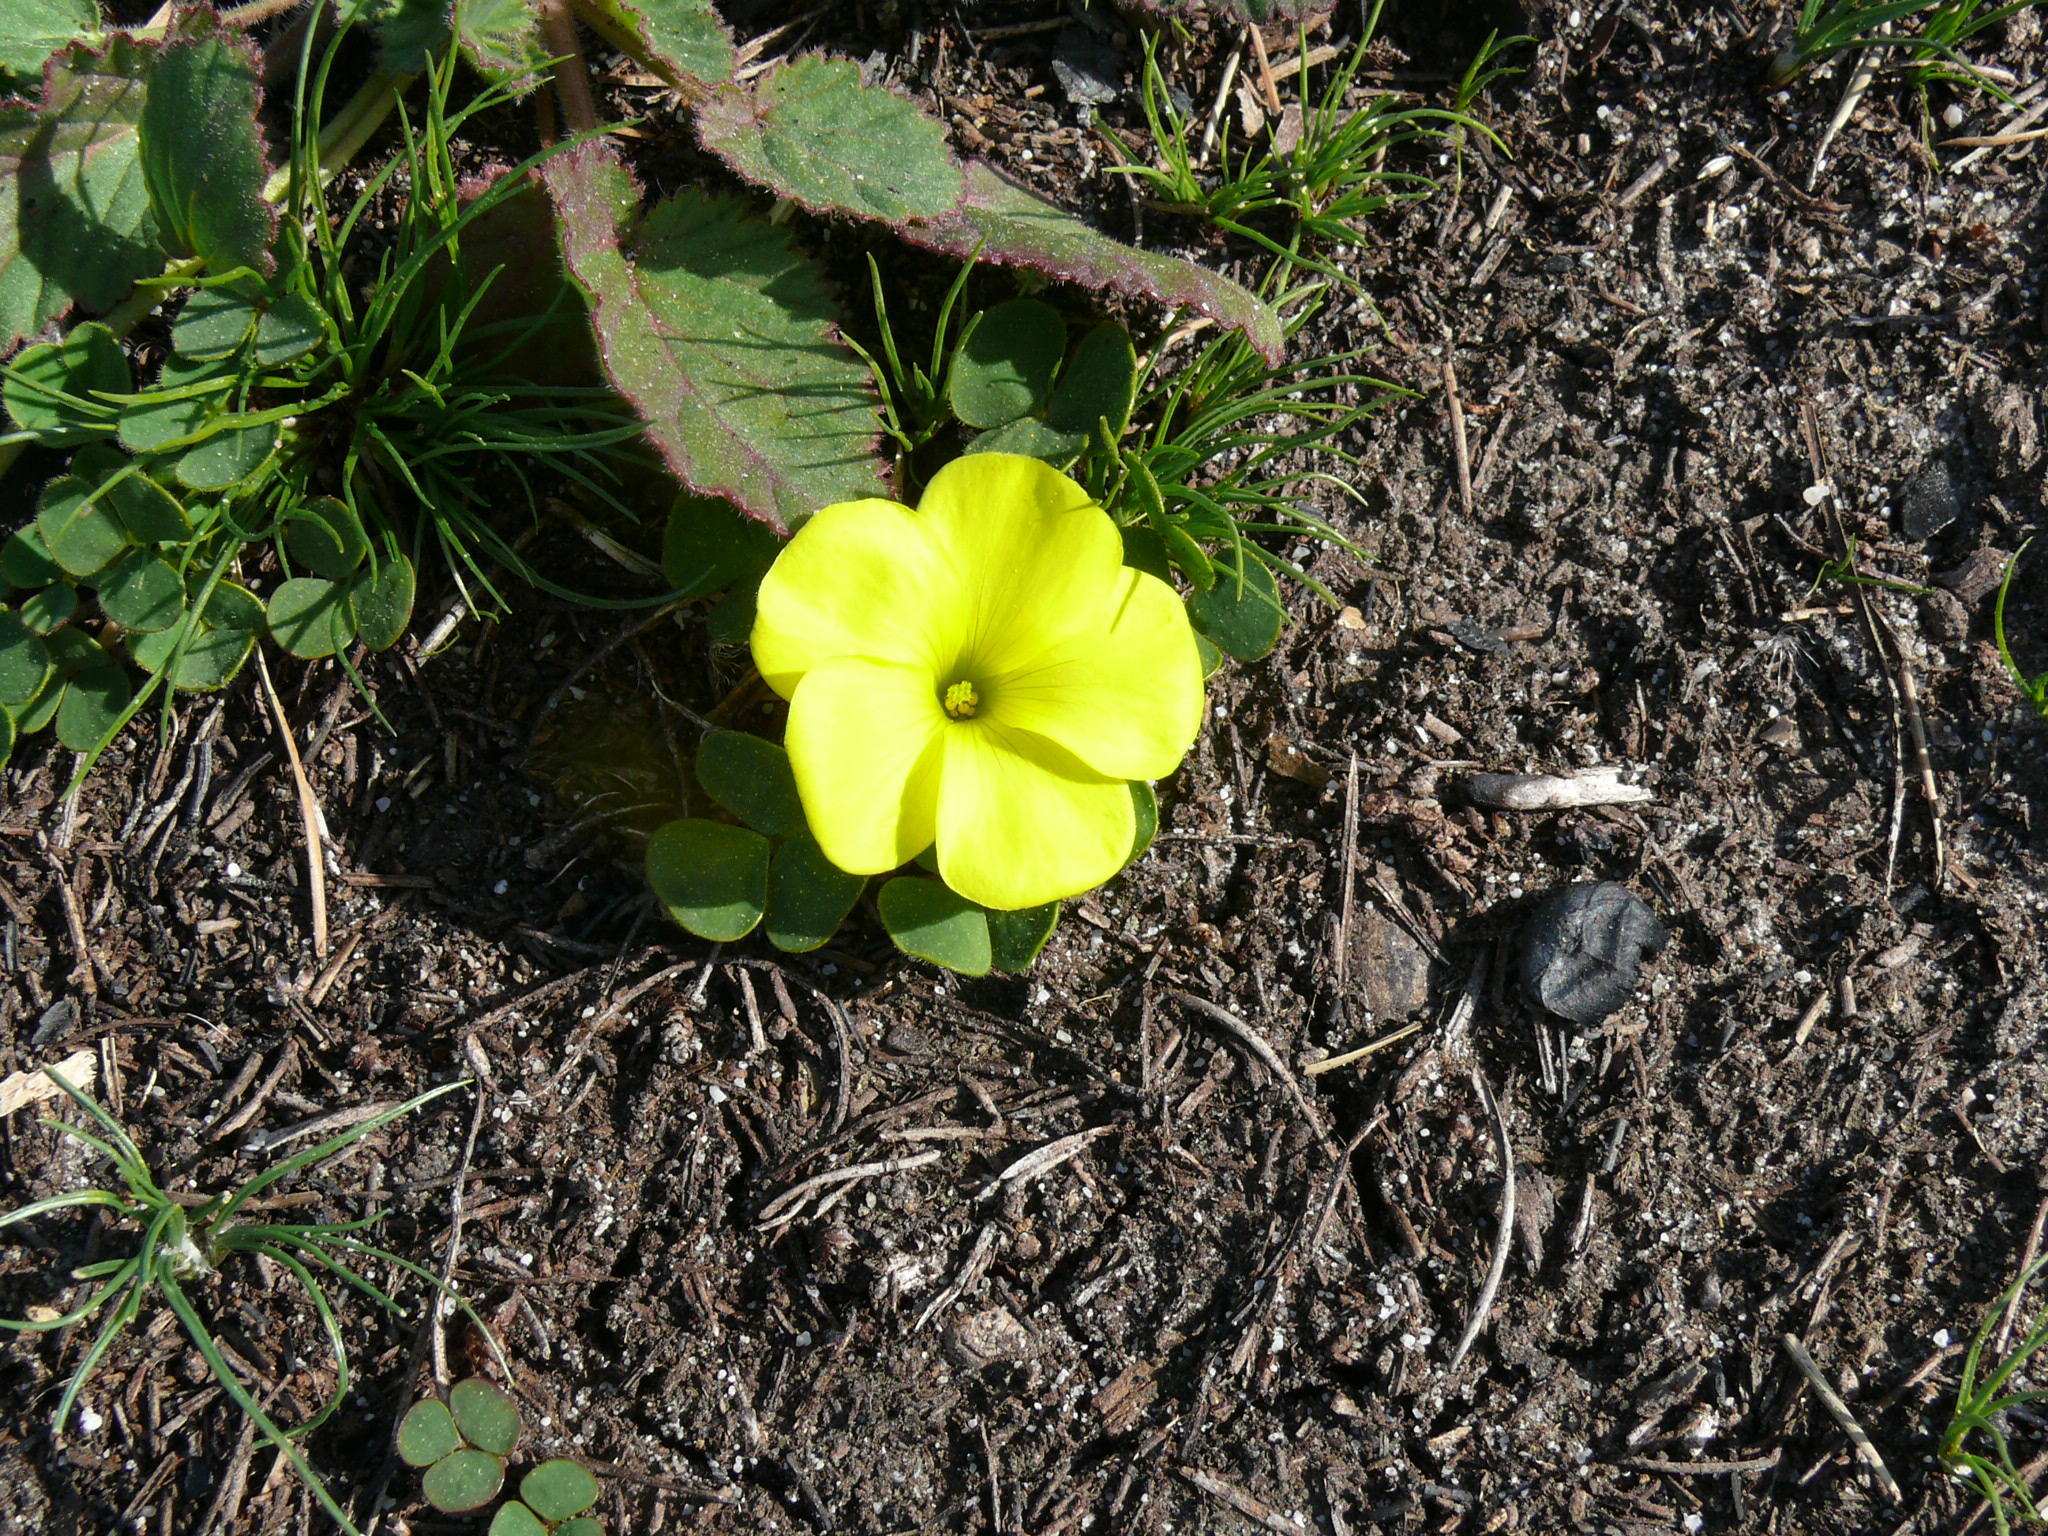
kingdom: Plantae
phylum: Tracheophyta
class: Magnoliopsida
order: Oxalidales
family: Oxalidaceae
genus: Oxalis
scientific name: Oxalis luteola
